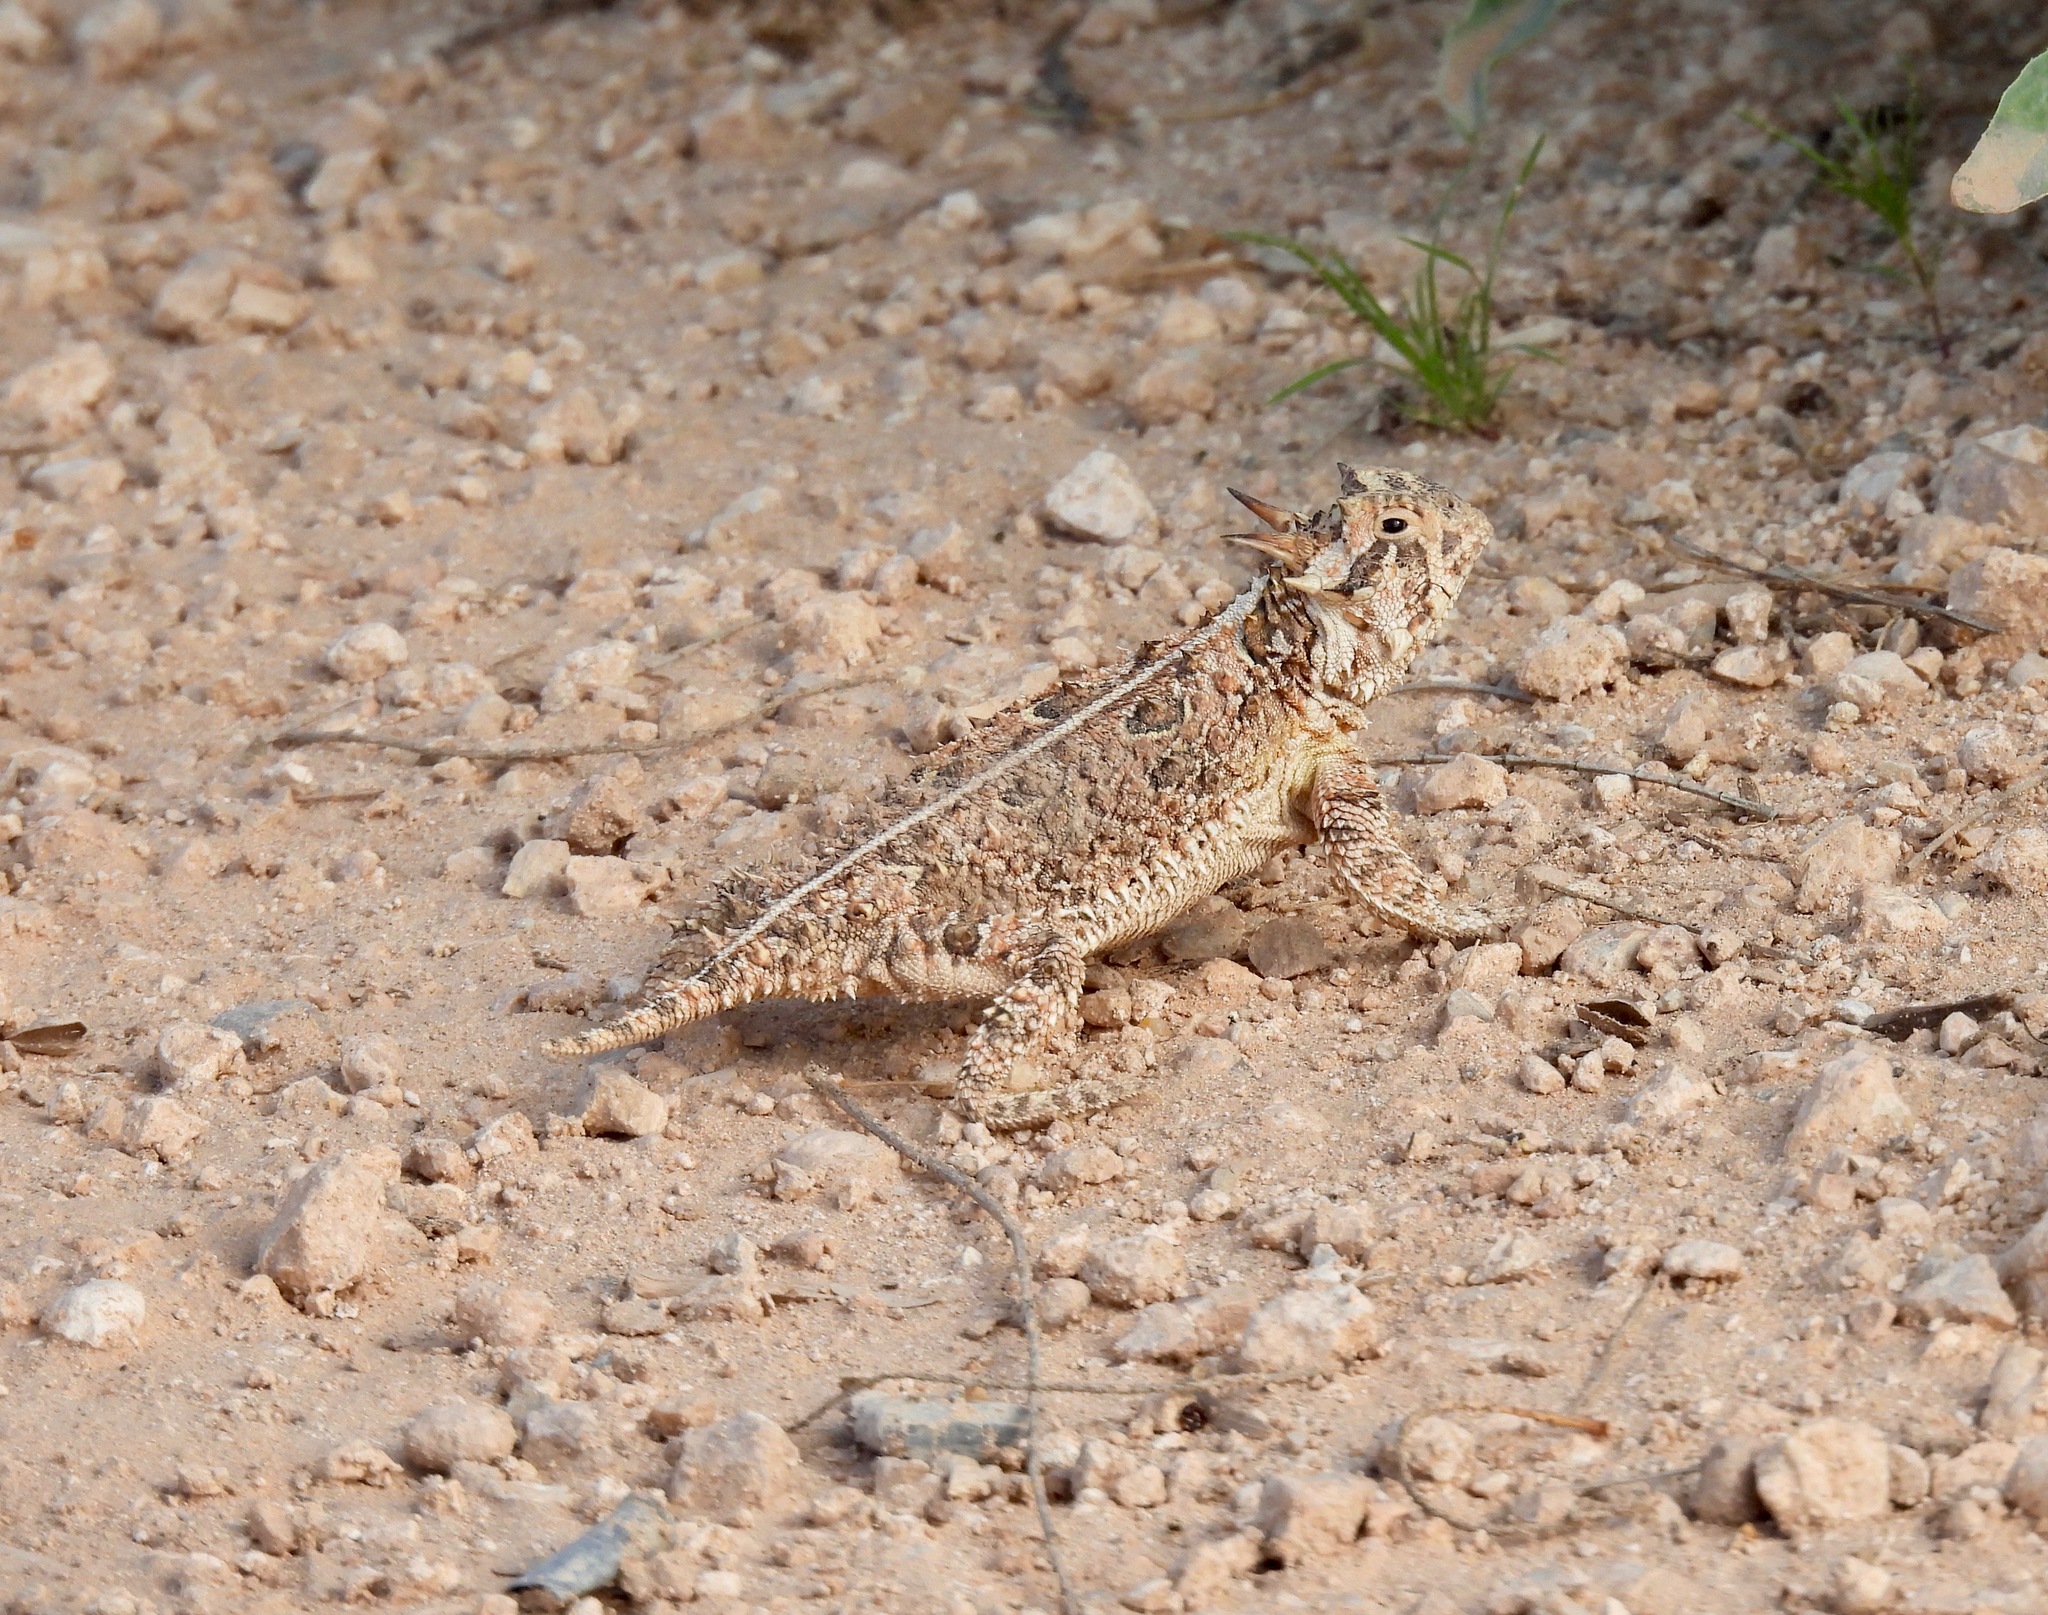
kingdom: Animalia
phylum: Chordata
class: Squamata
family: Phrynosomatidae
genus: Phrynosoma
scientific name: Phrynosoma cornutum
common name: Texas horned lizard
